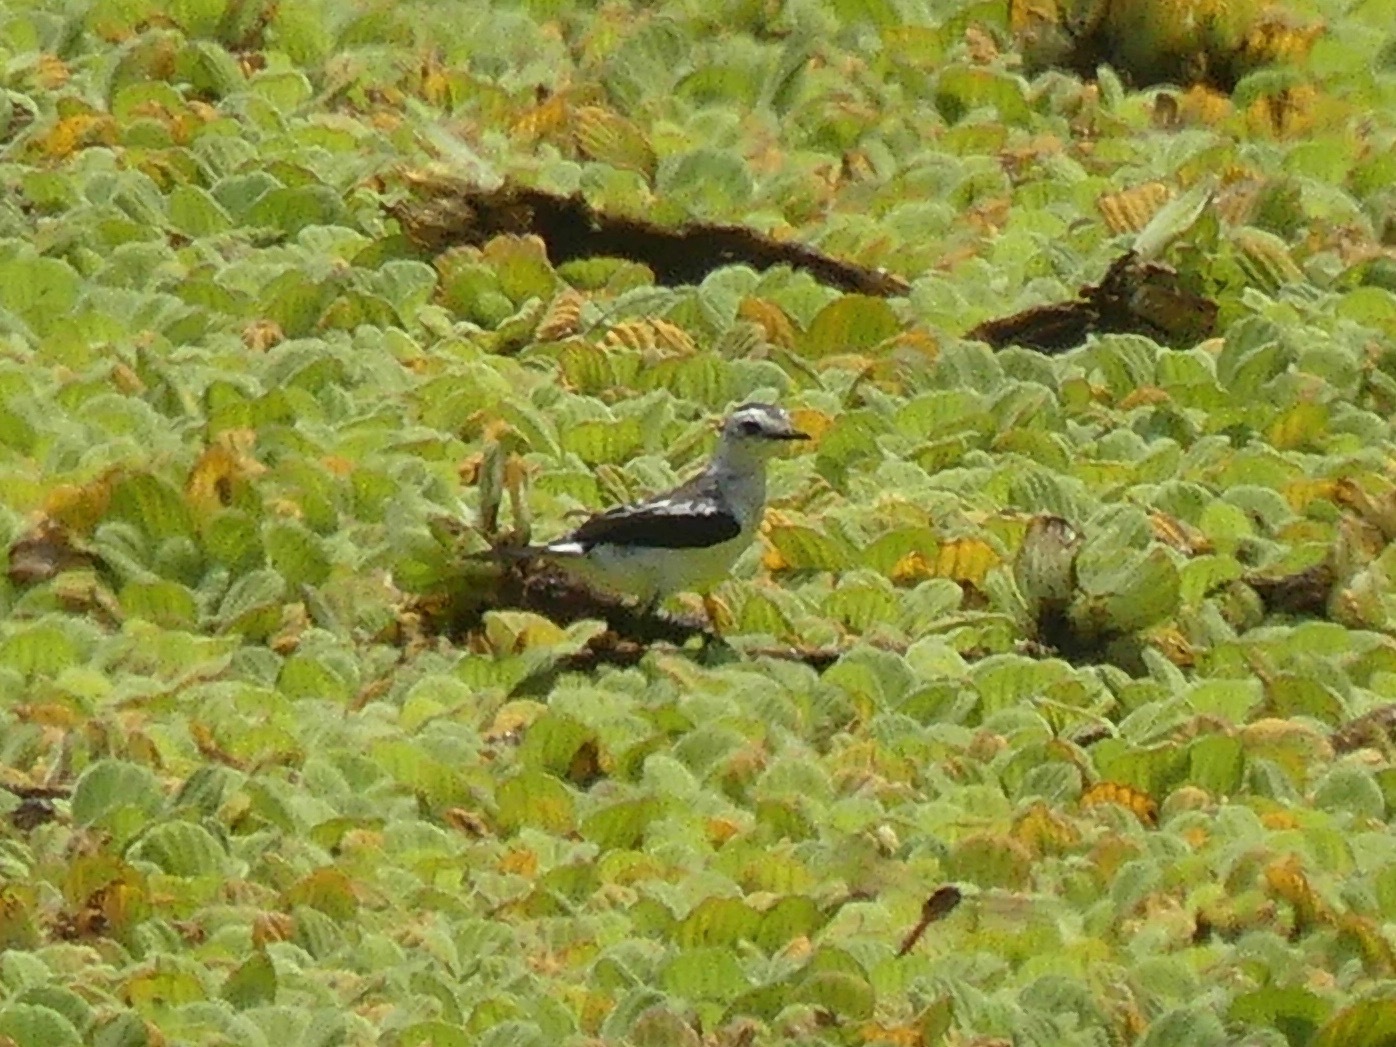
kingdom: Animalia
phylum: Chordata
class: Aves
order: Passeriformes
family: Tyrannidae
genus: Fluvicola
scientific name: Fluvicola pica
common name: Pied water-tyrant
